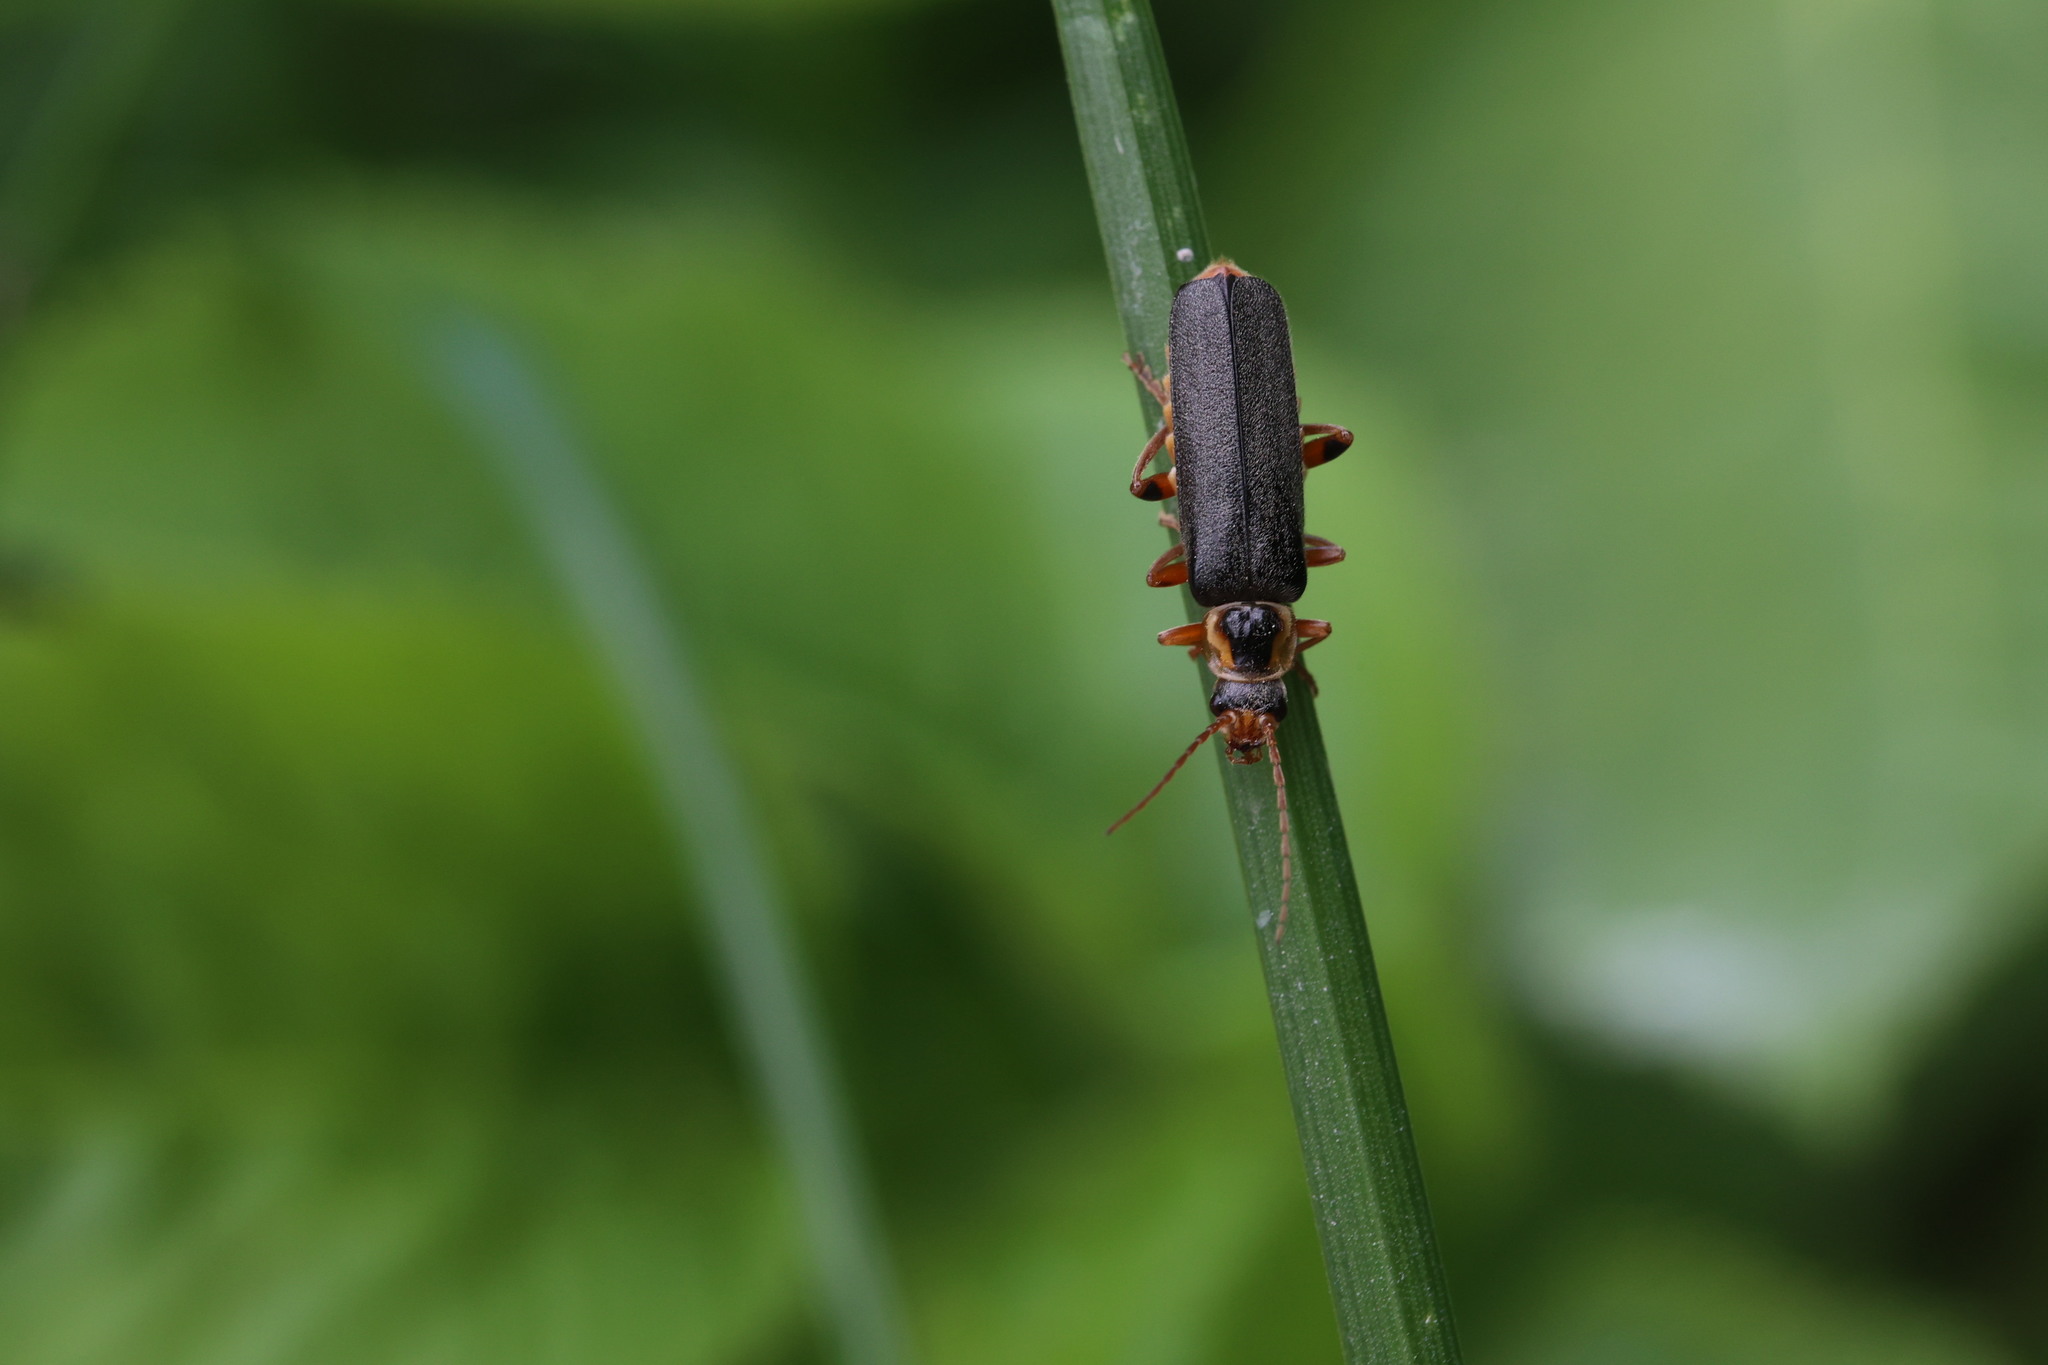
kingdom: Animalia
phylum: Arthropoda
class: Insecta
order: Coleoptera
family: Cantharidae
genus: Cantharis
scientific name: Cantharis nigricans
